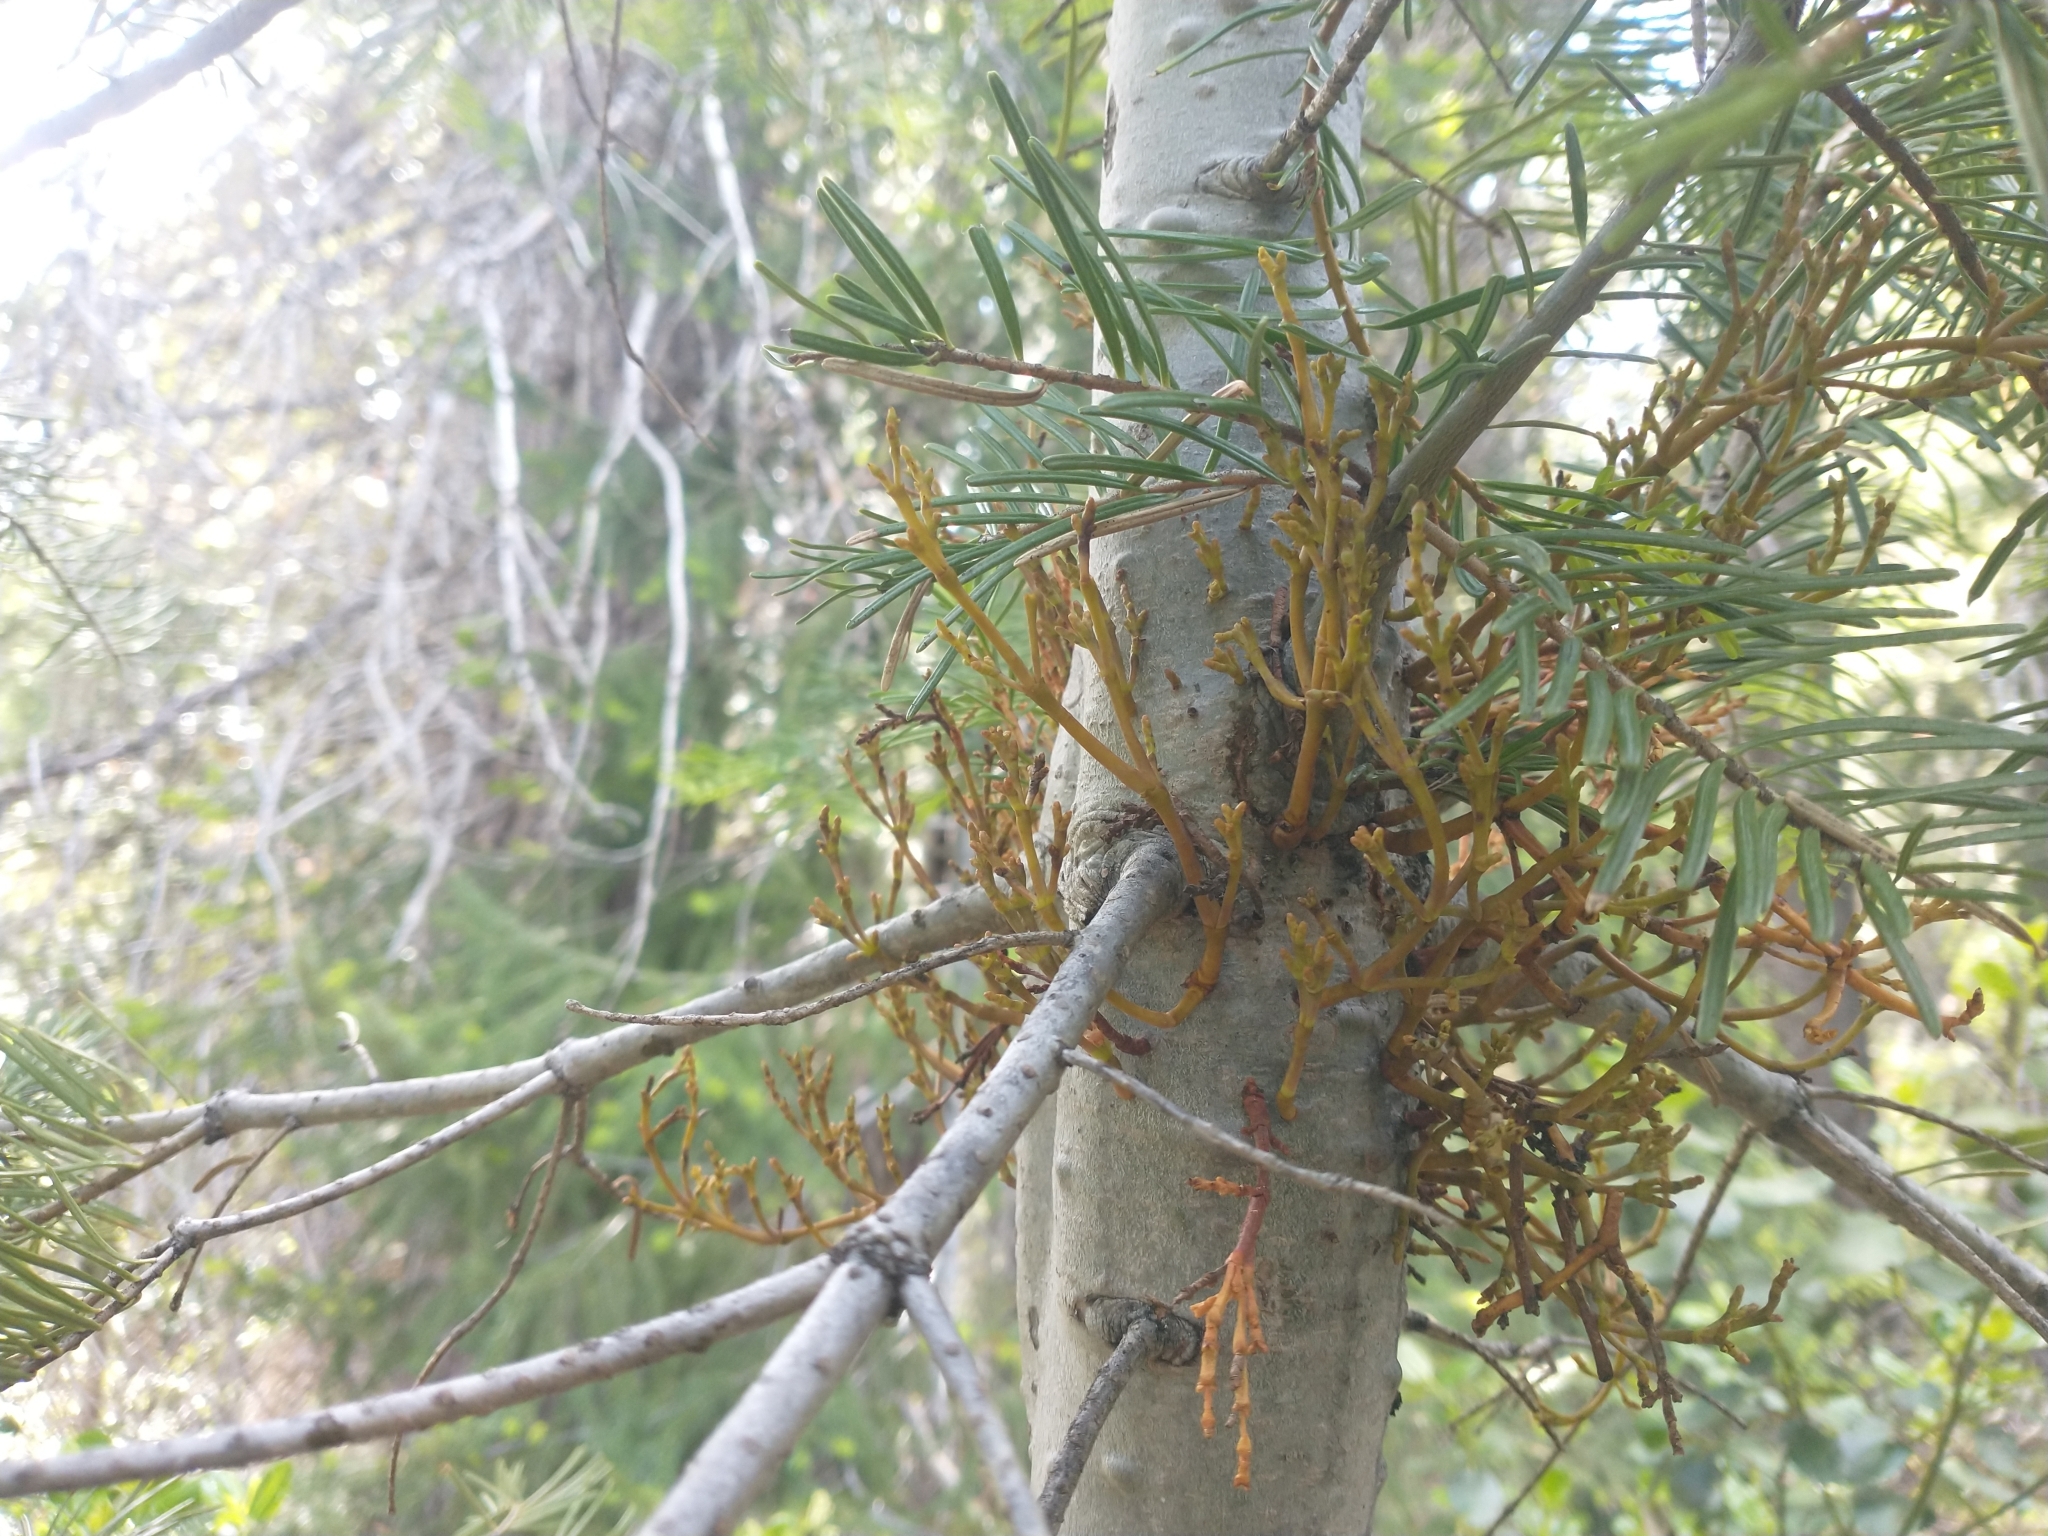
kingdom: Plantae
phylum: Tracheophyta
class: Magnoliopsida
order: Santalales
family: Viscaceae
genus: Arceuthobium
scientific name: Arceuthobium abietinum
